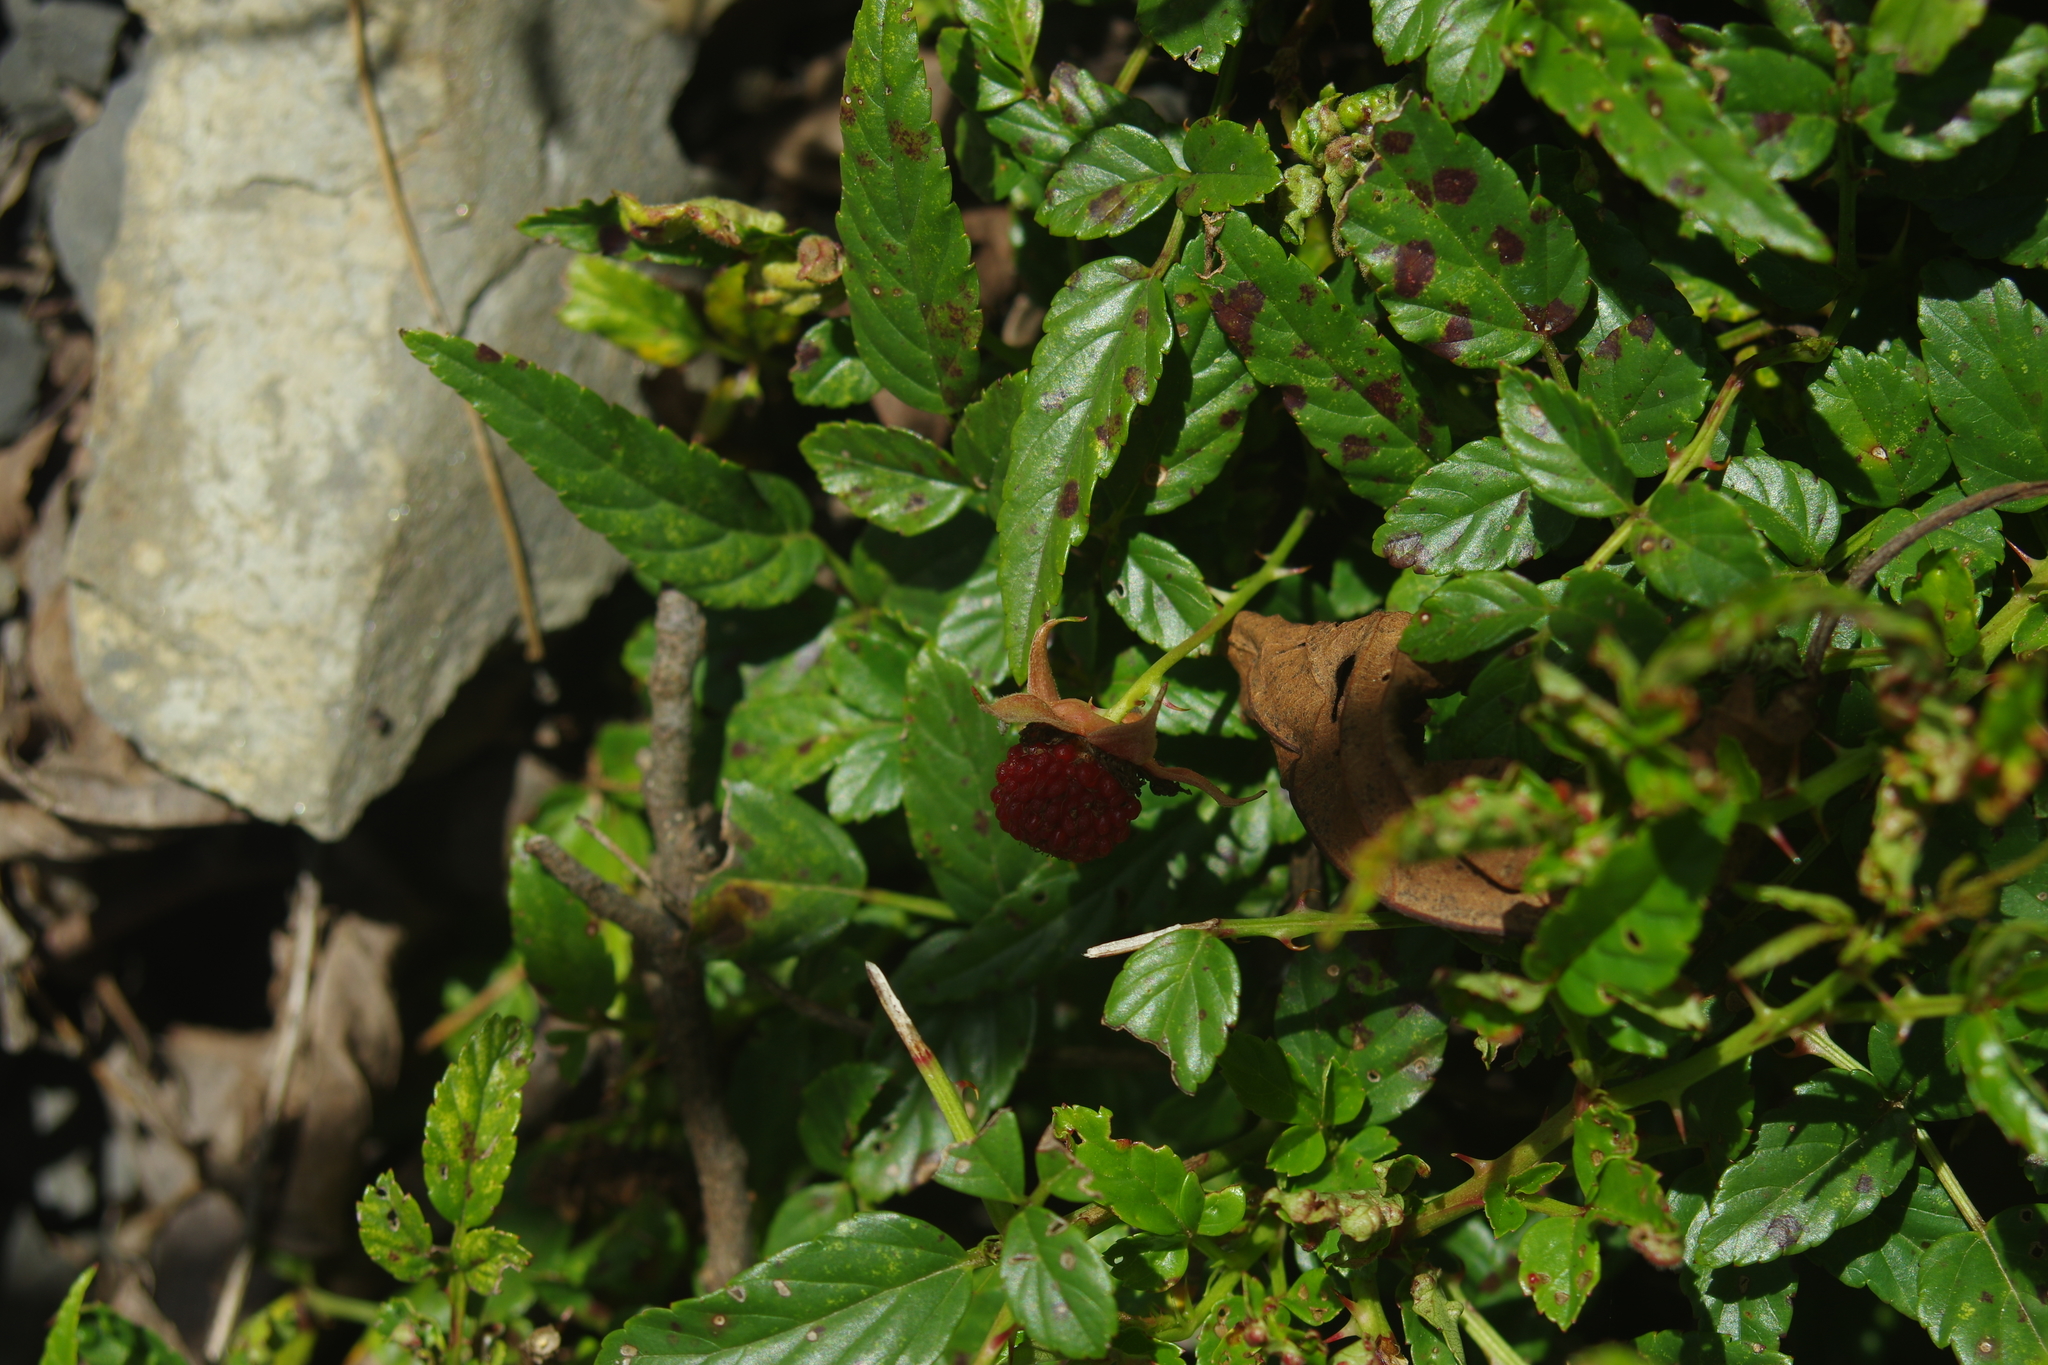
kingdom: Plantae
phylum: Tracheophyta
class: Magnoliopsida
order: Rosales
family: Rosaceae
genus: Rubus
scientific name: Rubus croceacanthus
